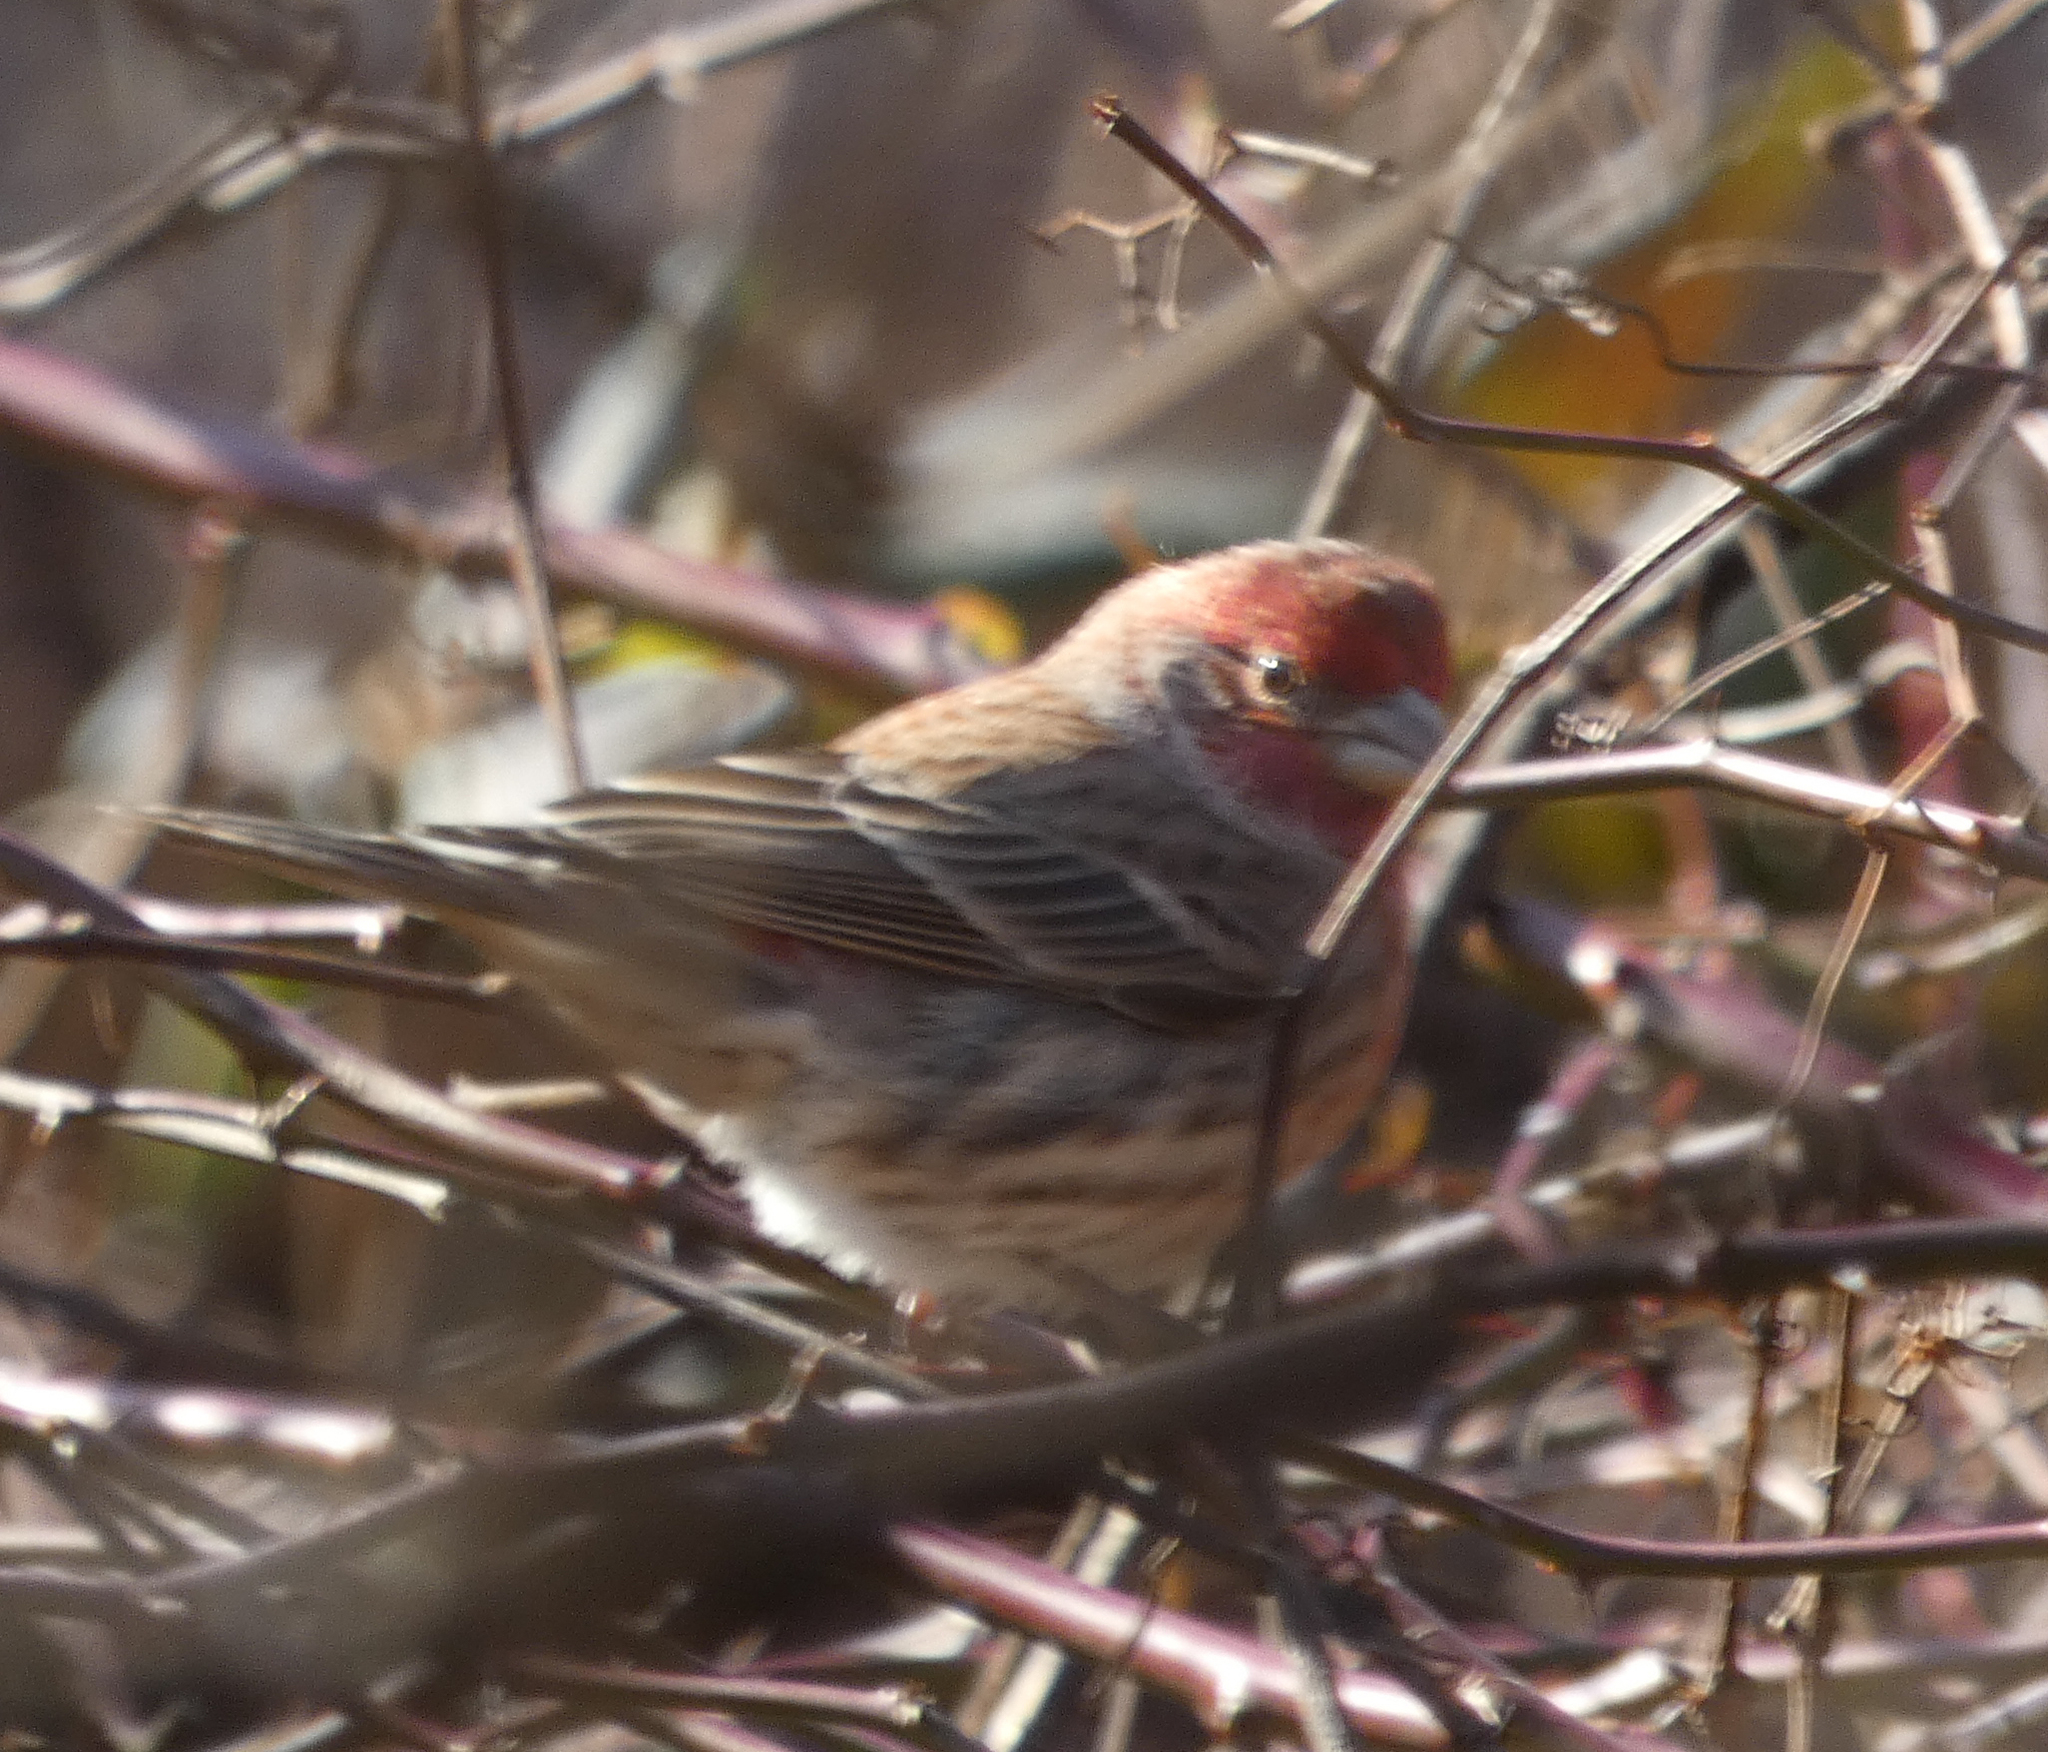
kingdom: Animalia
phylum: Chordata
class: Aves
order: Passeriformes
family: Fringillidae
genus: Haemorhous
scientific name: Haemorhous mexicanus
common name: House finch
